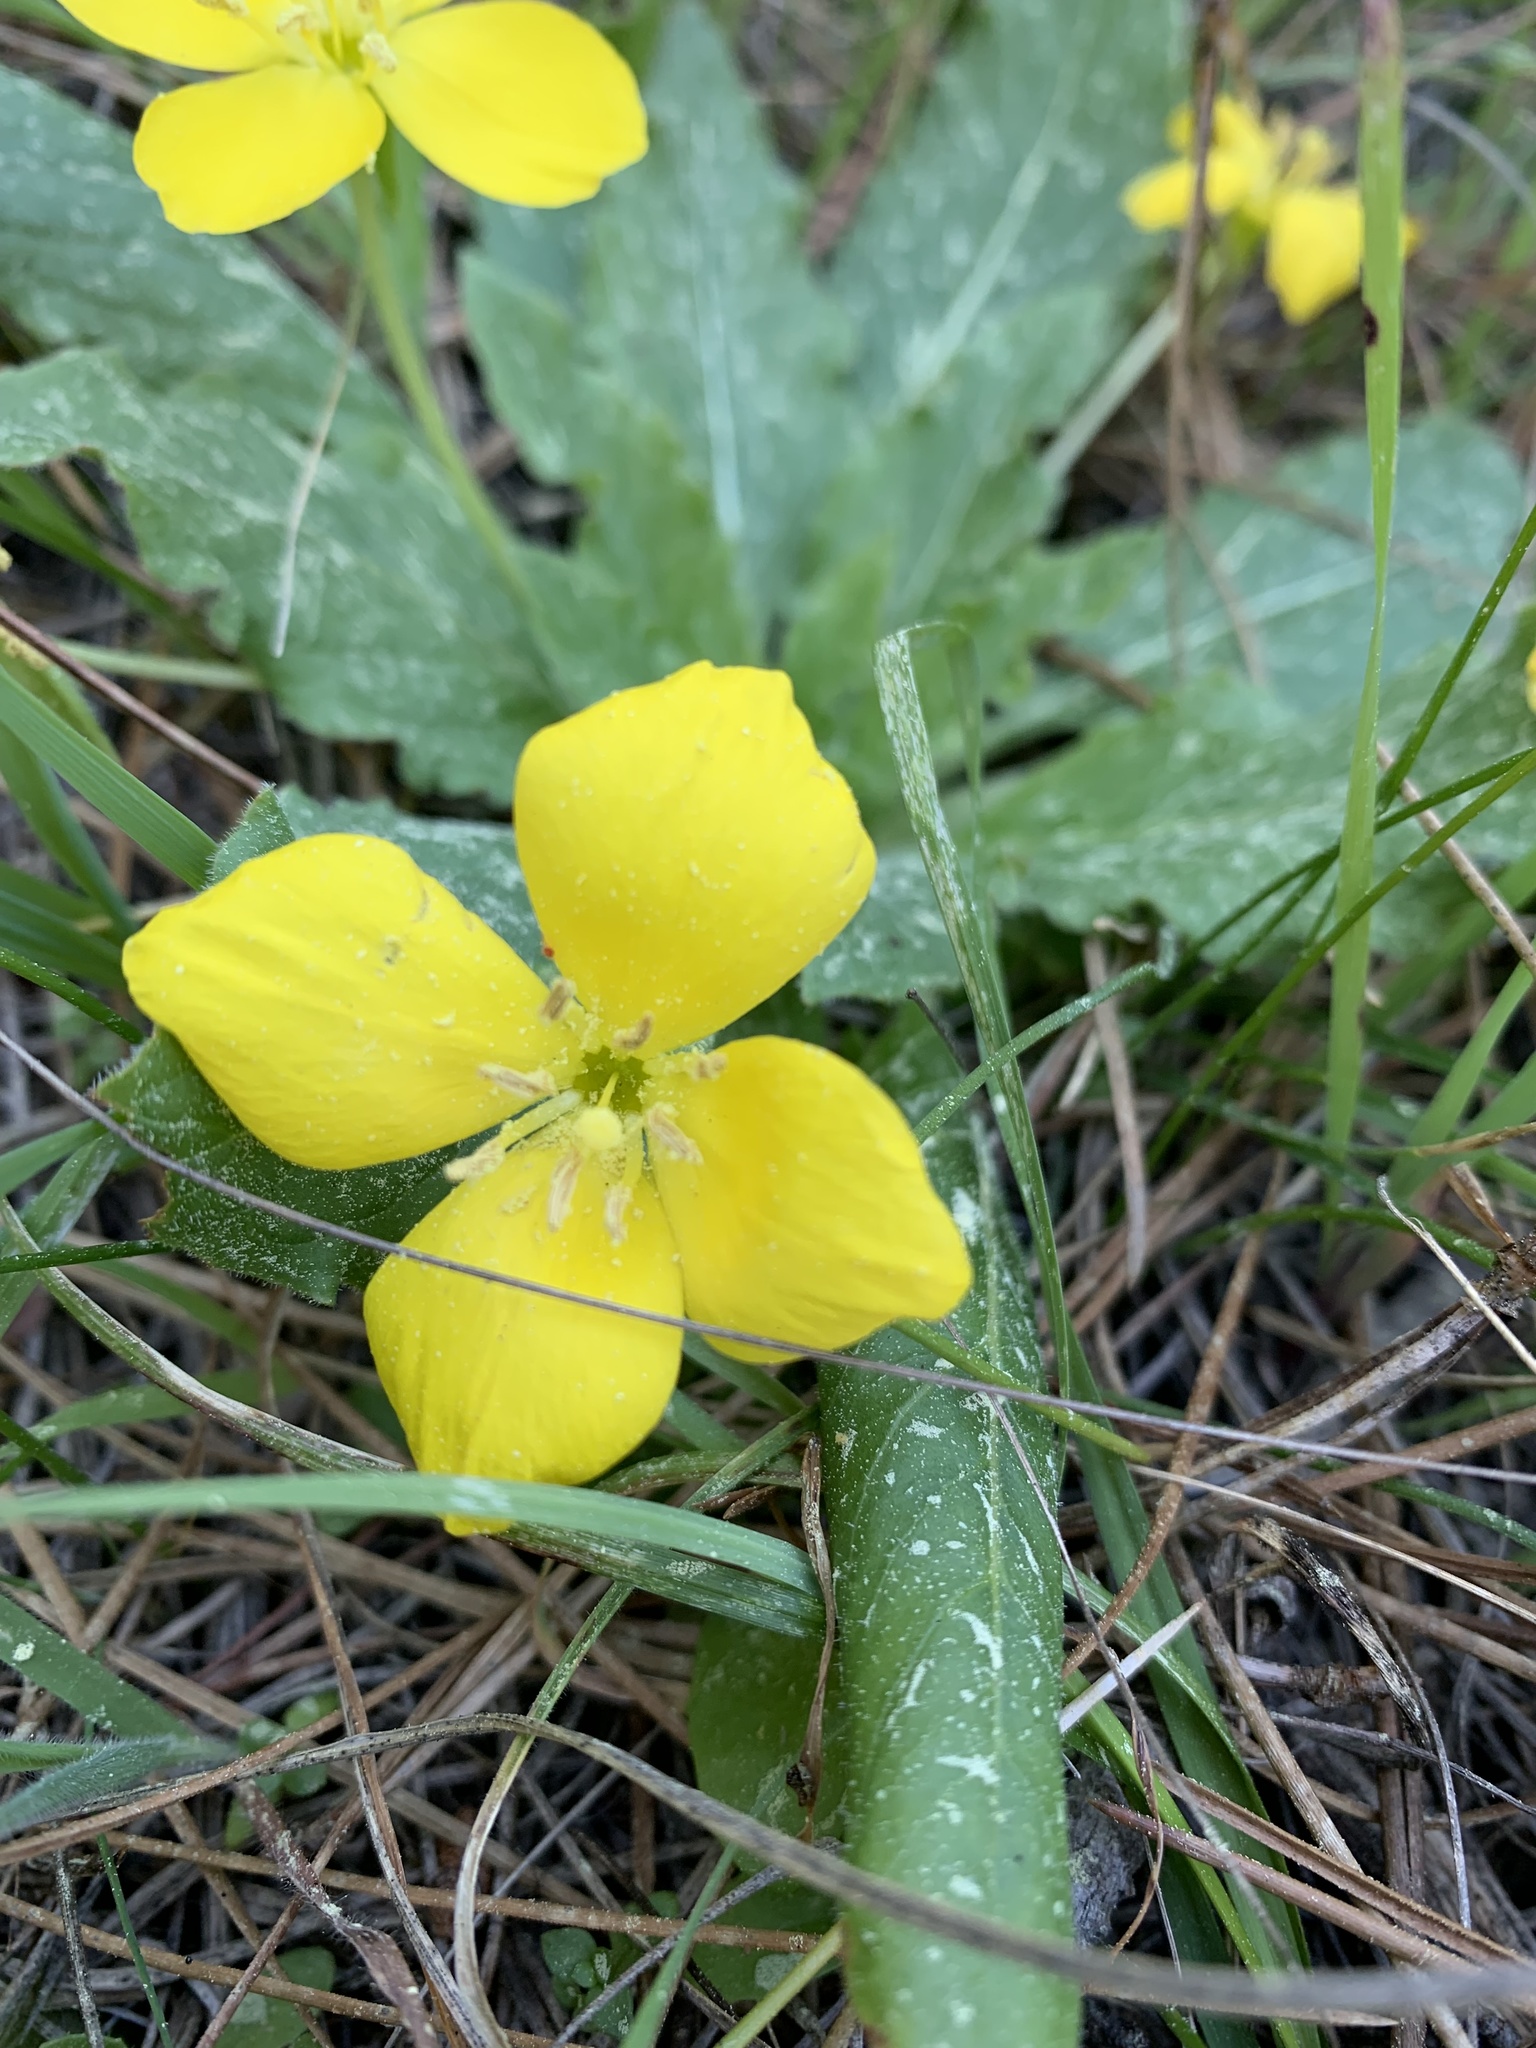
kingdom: Plantae
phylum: Tracheophyta
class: Magnoliopsida
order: Myrtales
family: Onagraceae
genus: Taraxia
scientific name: Taraxia ovata
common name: Goldeneggs
